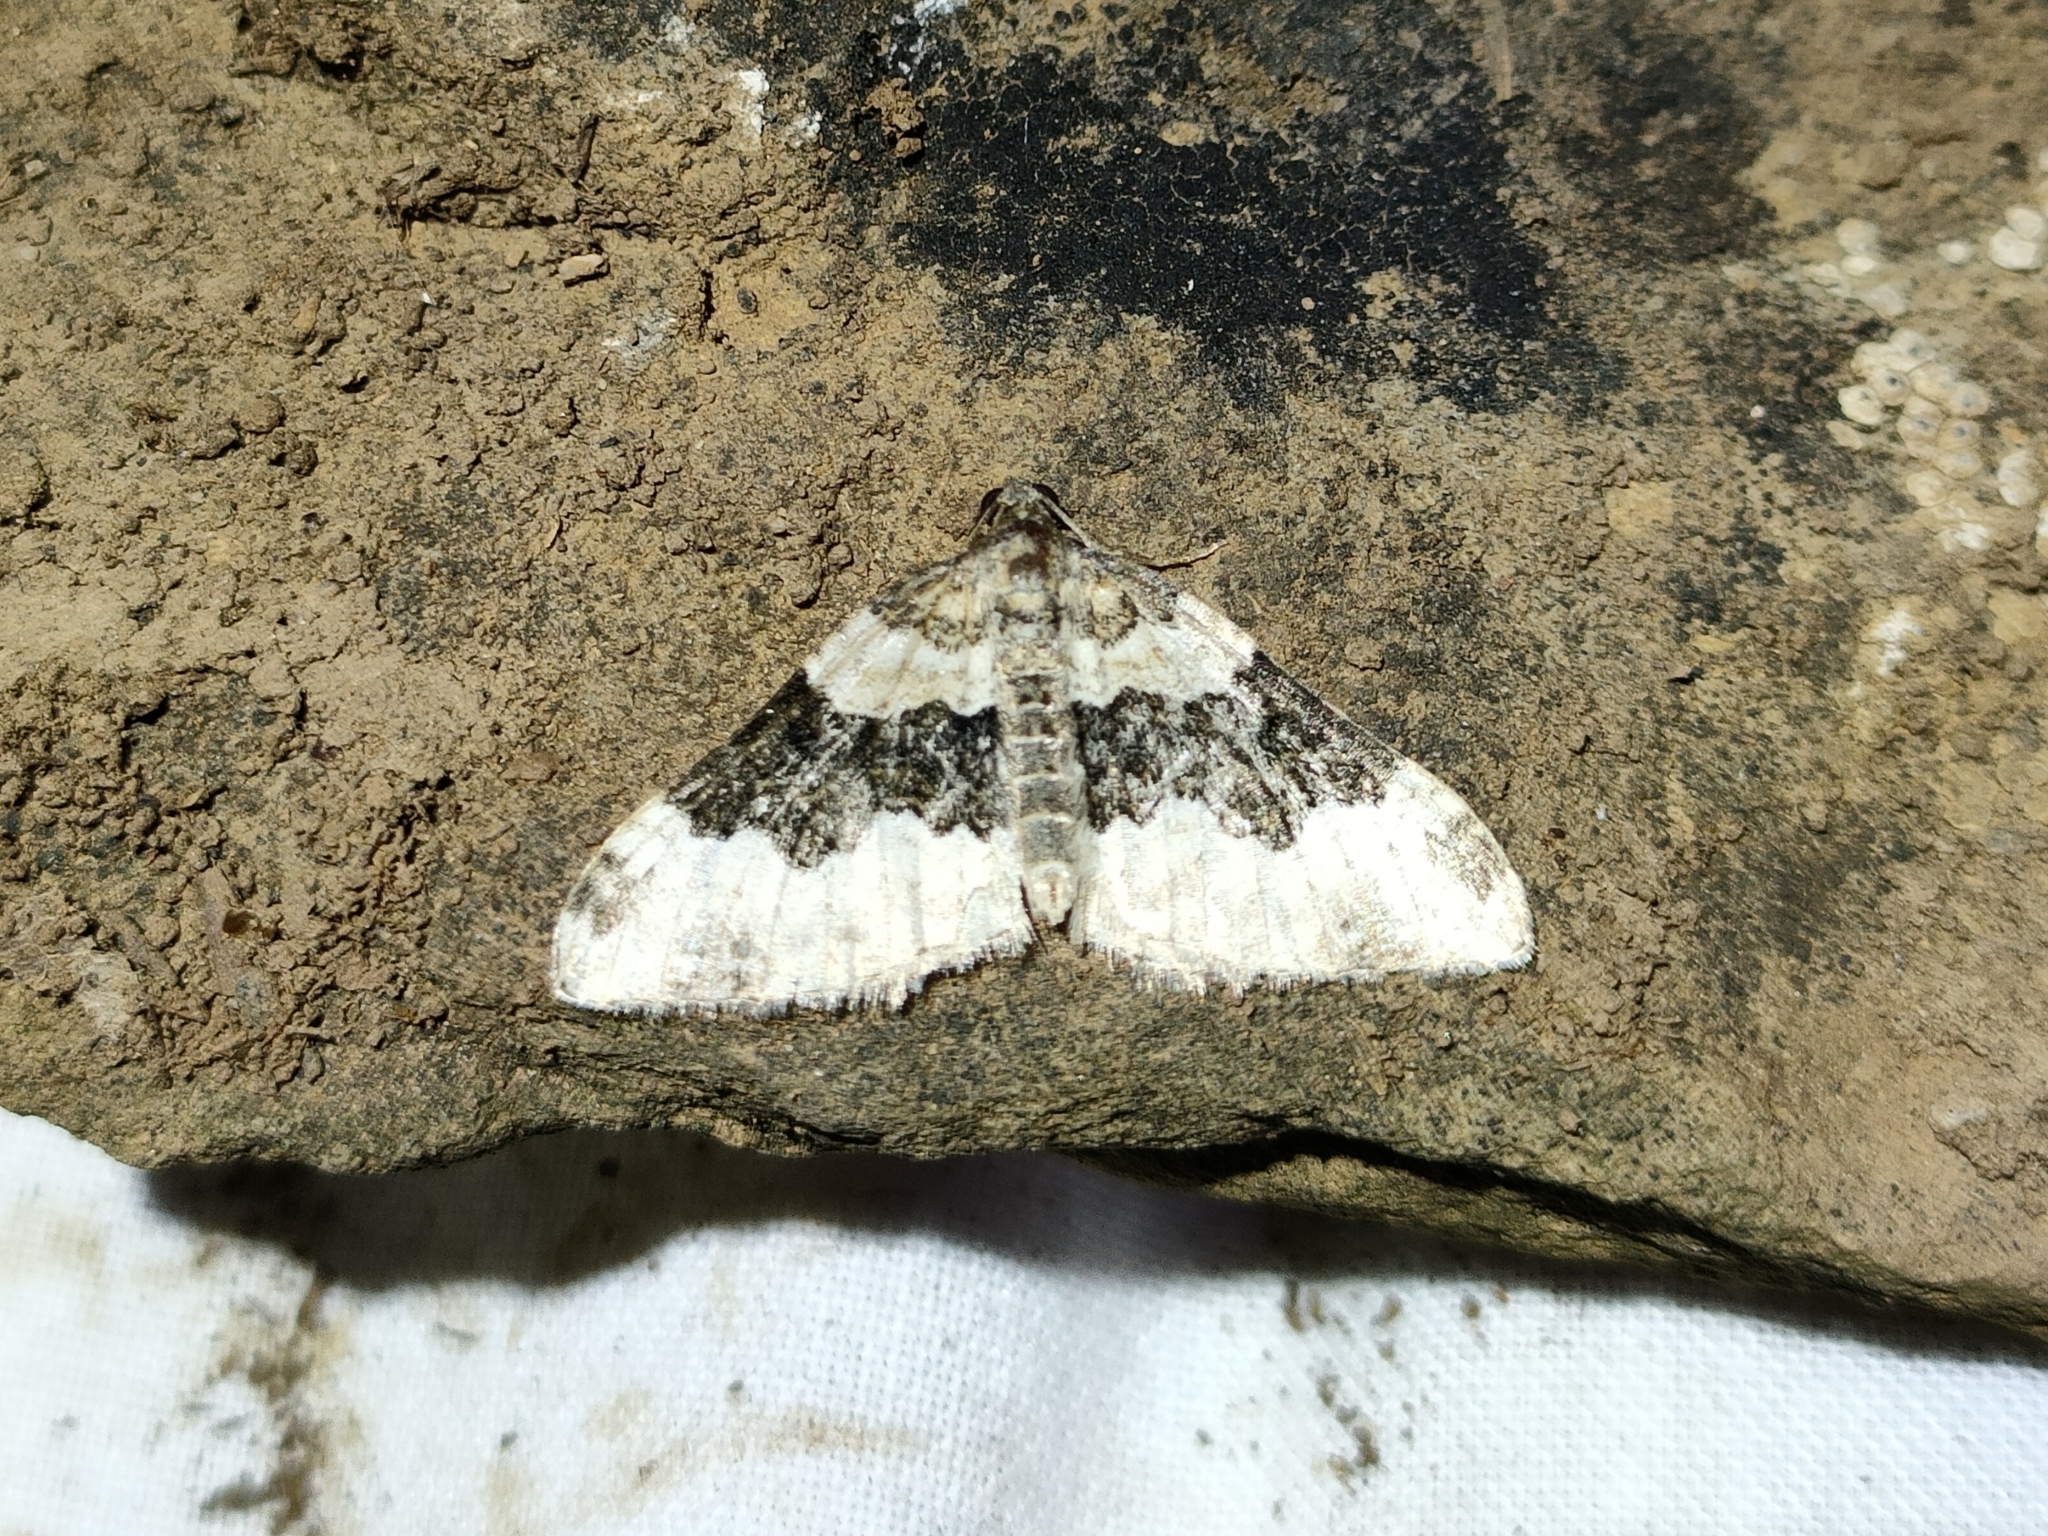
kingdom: Animalia
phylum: Arthropoda
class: Insecta
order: Lepidoptera
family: Geometridae
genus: Epirrhoe
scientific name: Epirrhoe galiata
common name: Galium carpet
